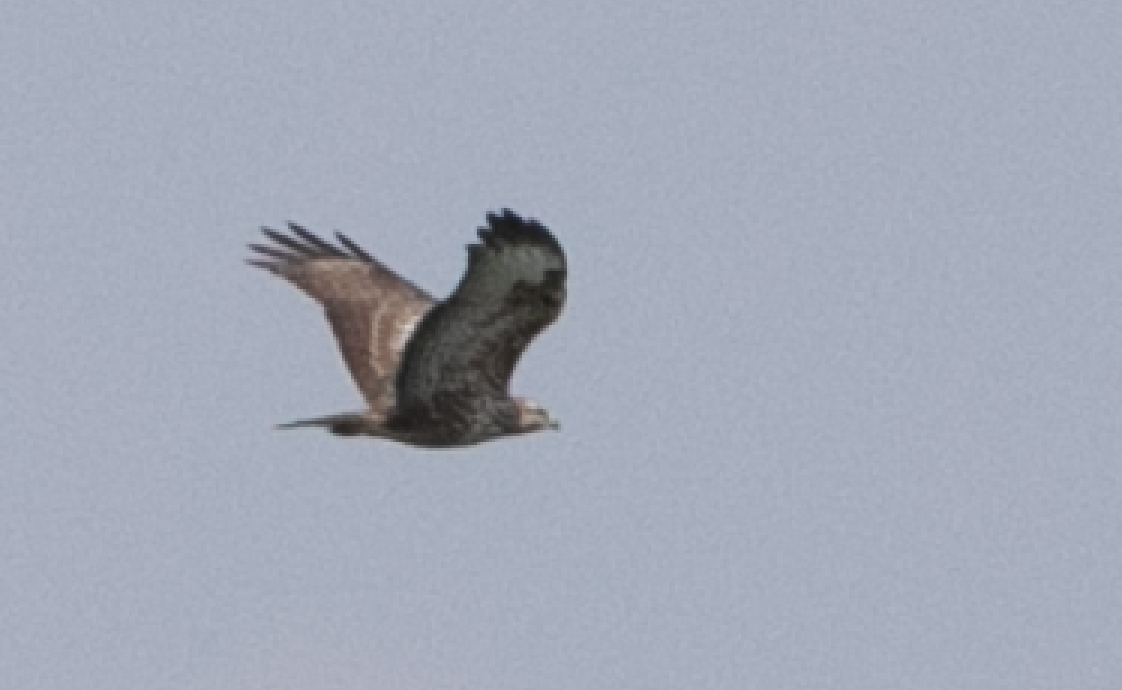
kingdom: Animalia
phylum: Chordata
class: Aves
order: Accipitriformes
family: Accipitridae
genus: Buteo
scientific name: Buteo buteo
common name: Common buzzard
